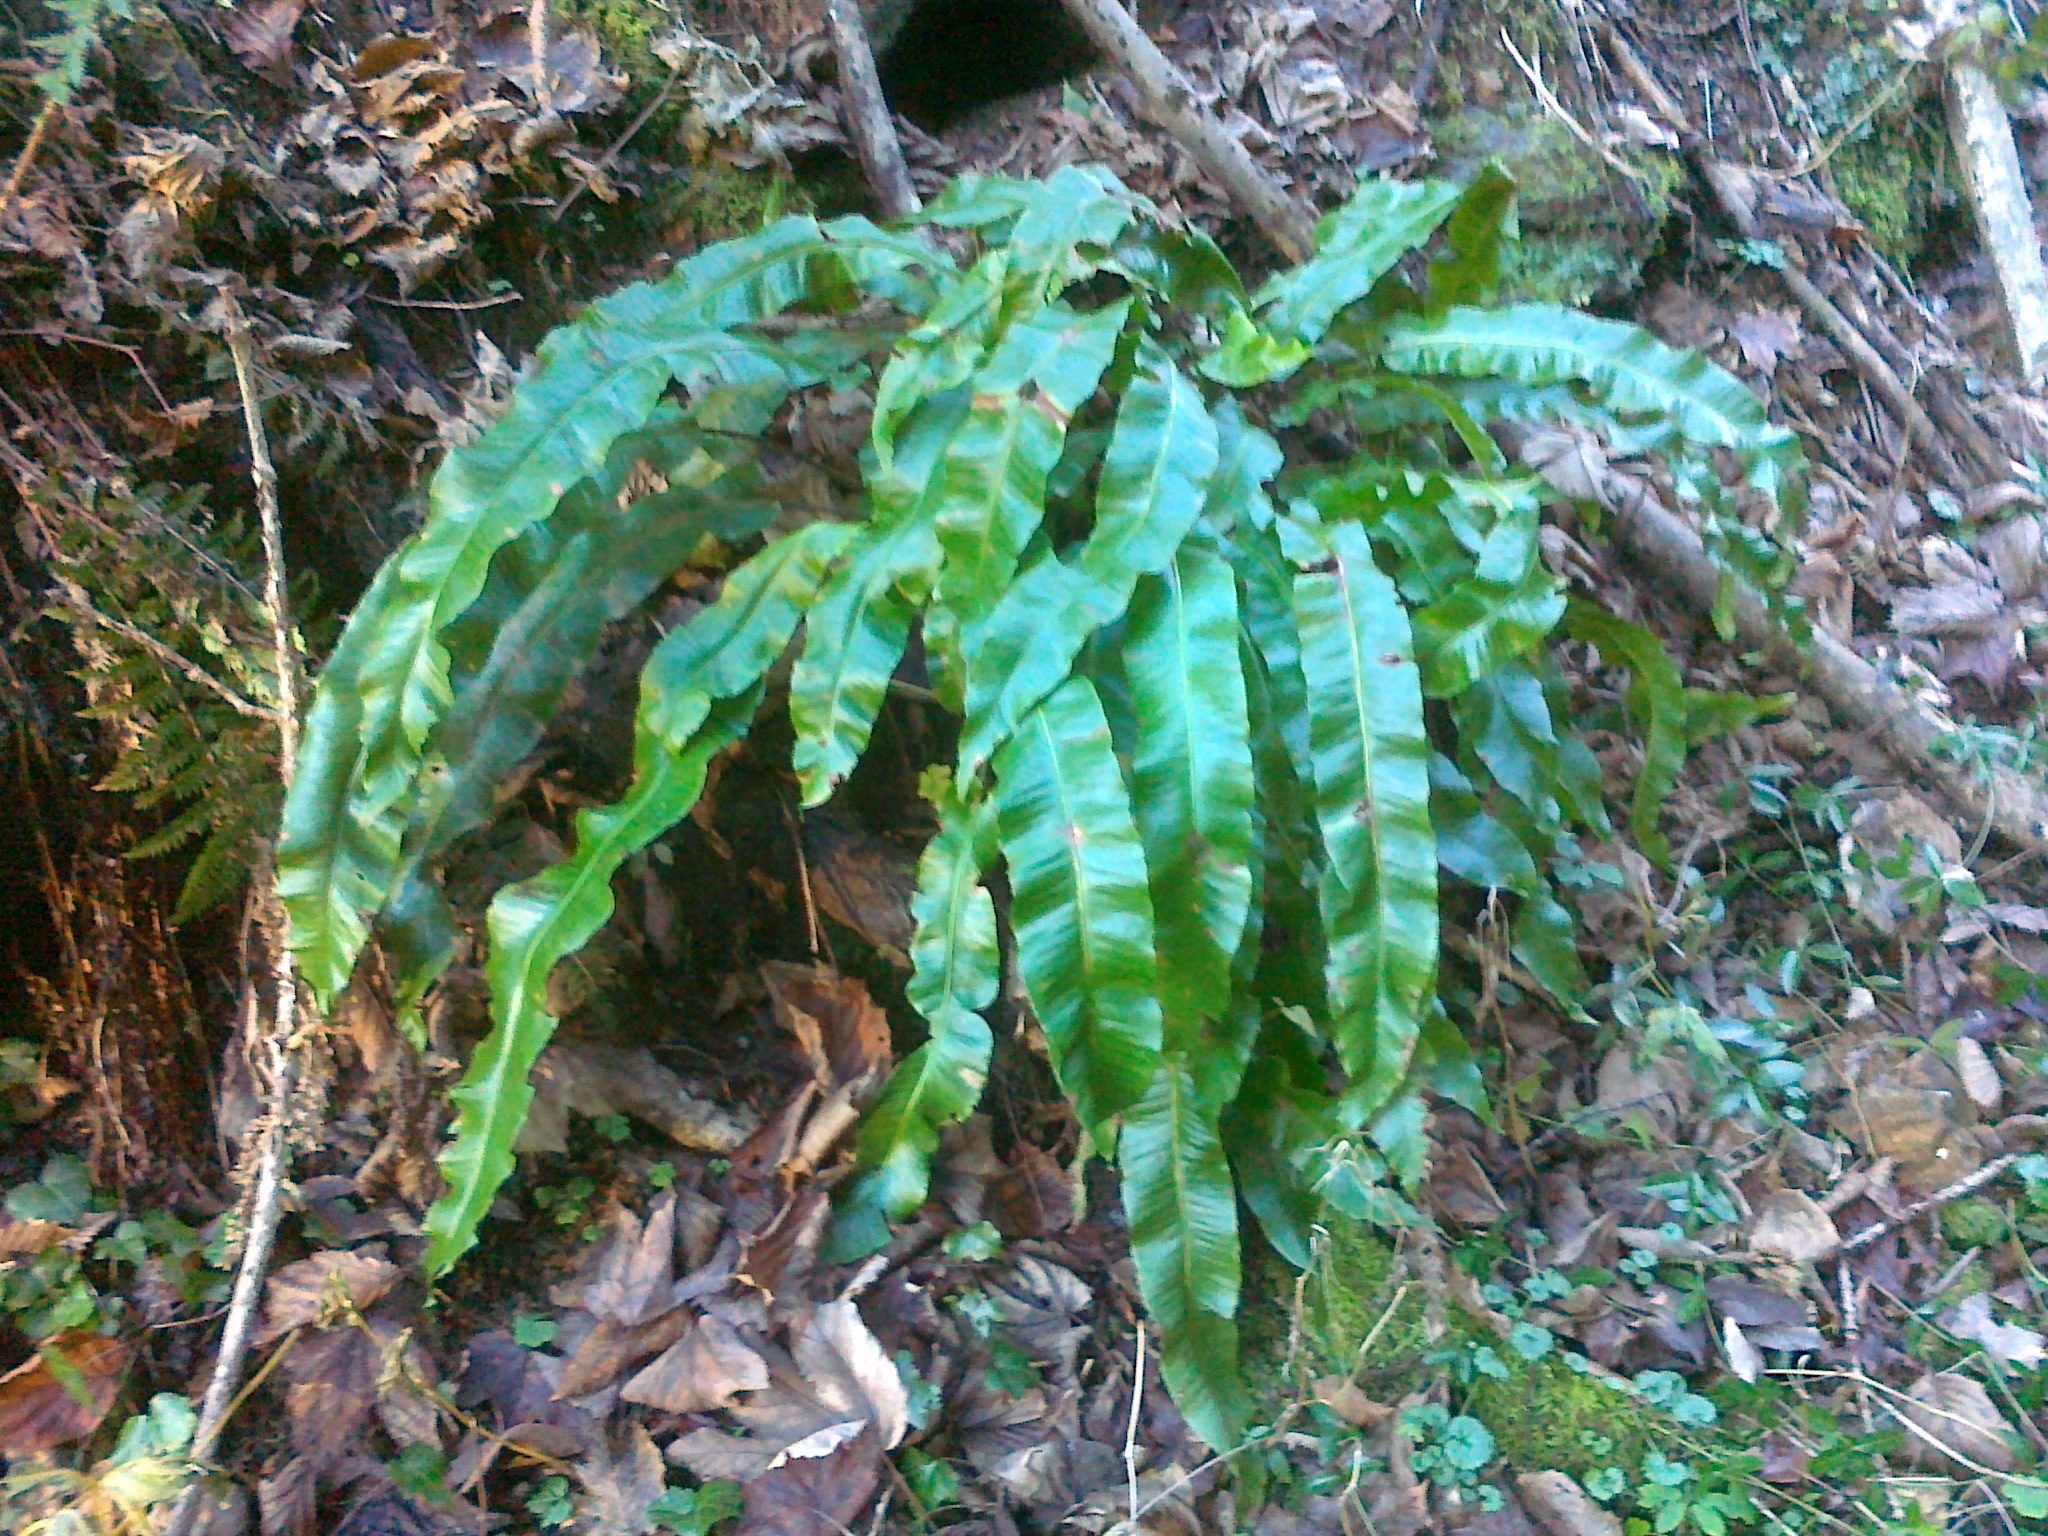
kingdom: Plantae
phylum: Tracheophyta
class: Polypodiopsida
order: Polypodiales
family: Aspleniaceae
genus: Asplenium
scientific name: Asplenium scolopendrium
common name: Hart's-tongue fern
